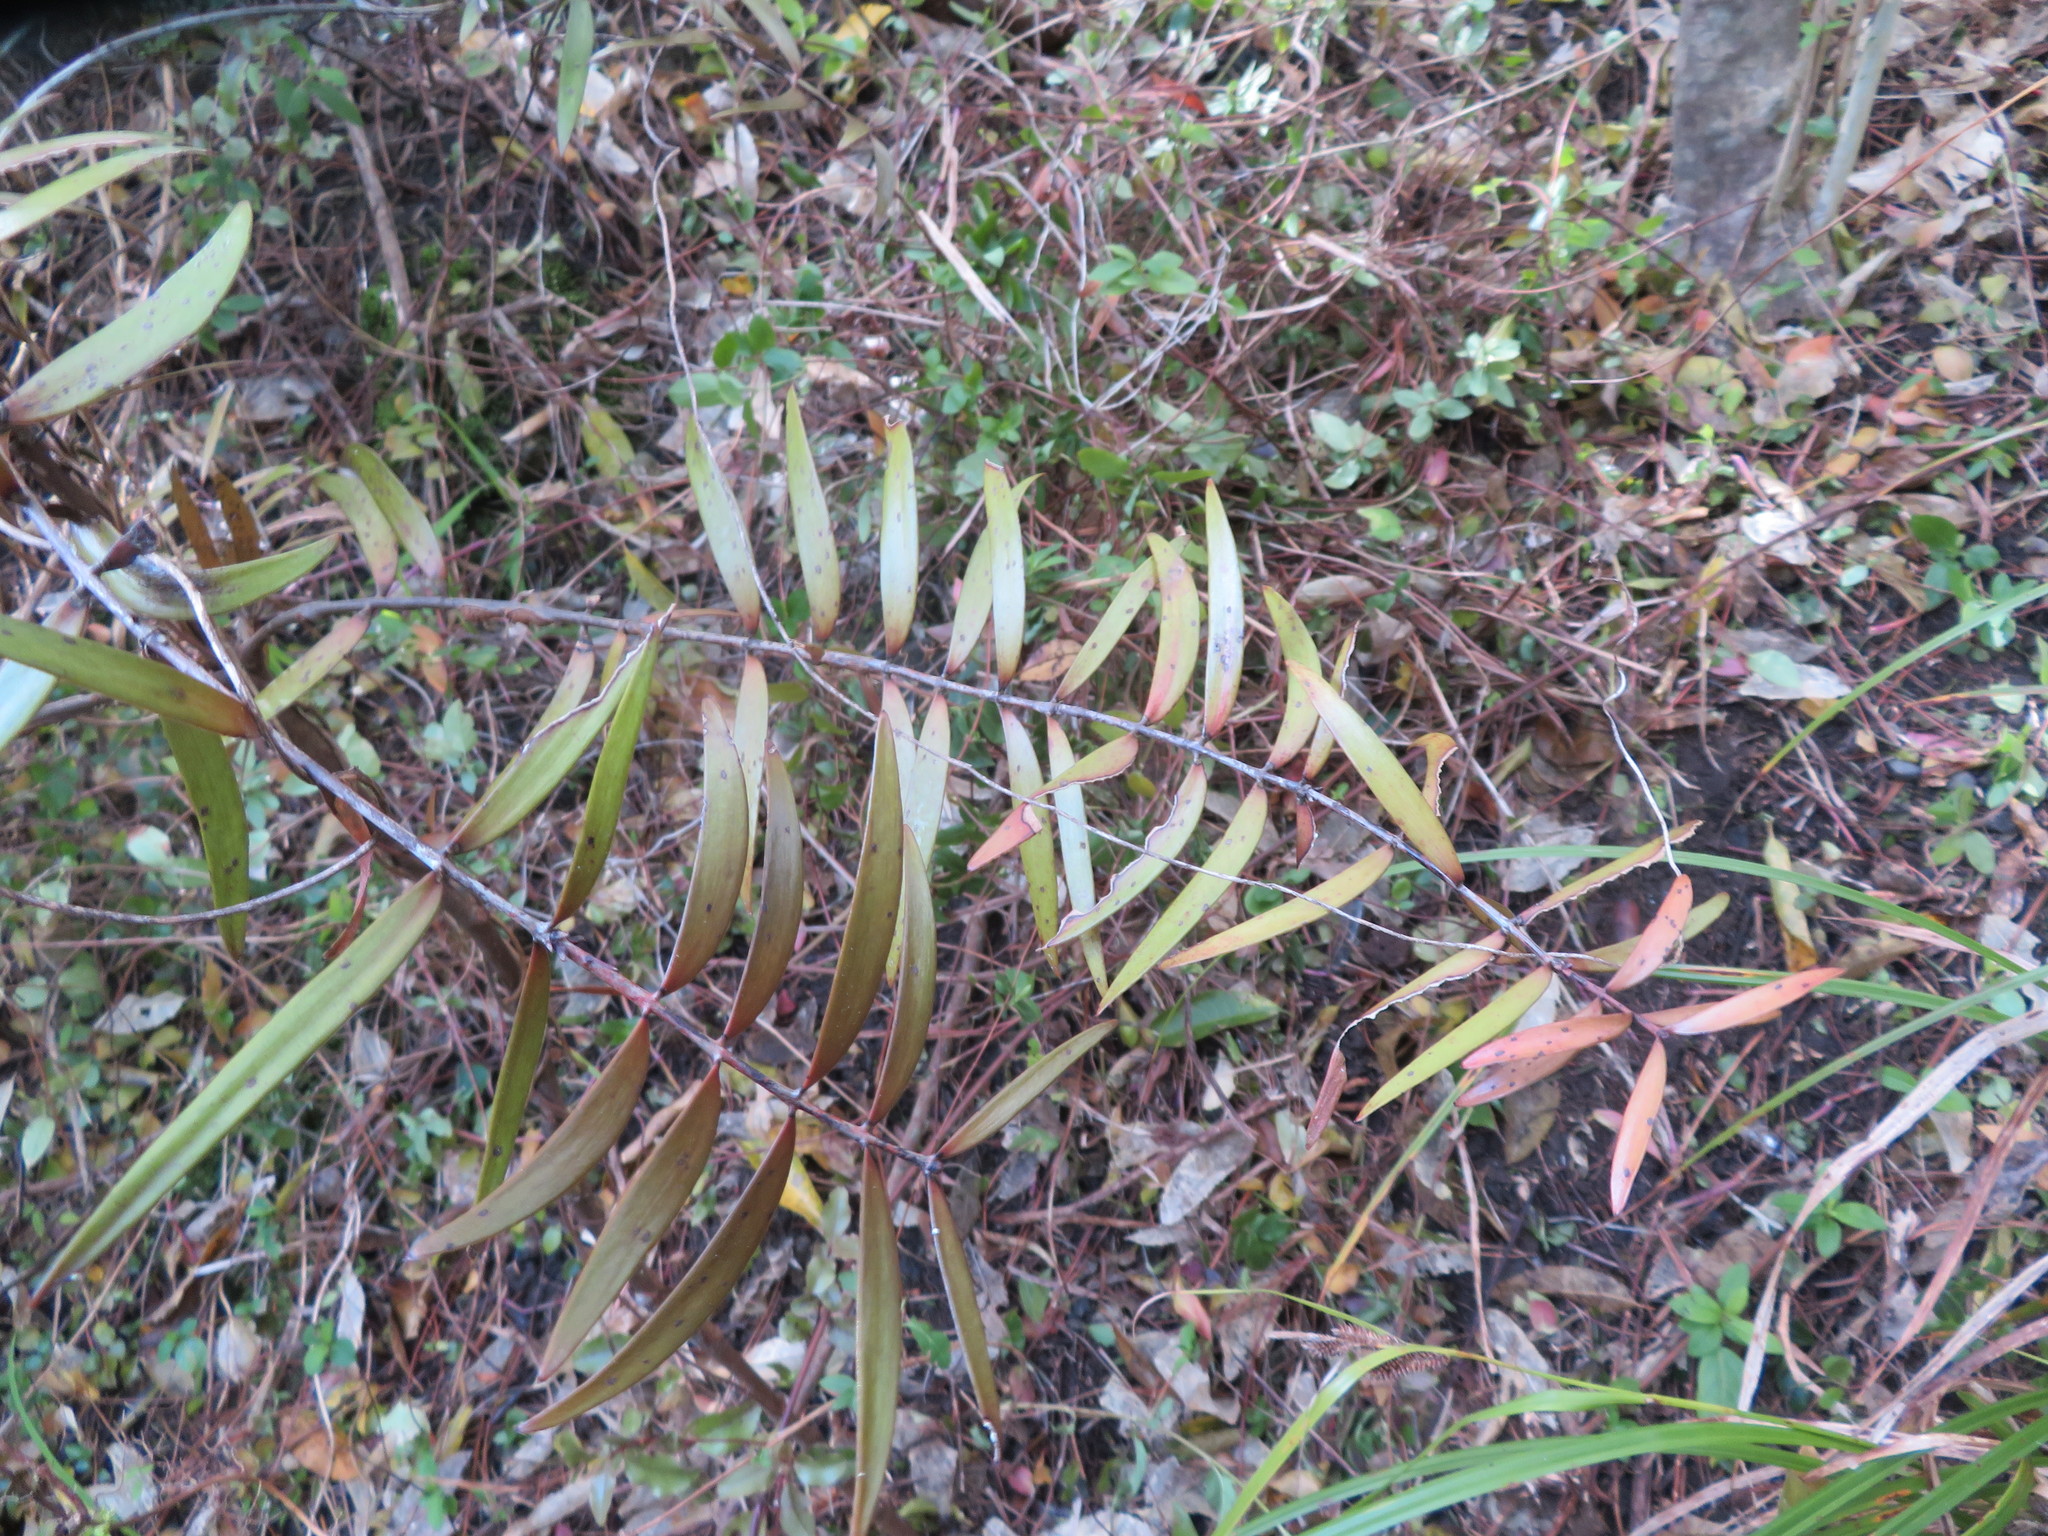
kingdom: Plantae
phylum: Tracheophyta
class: Pinopsida
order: Pinales
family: Araucariaceae
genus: Agathis
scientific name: Agathis australis
